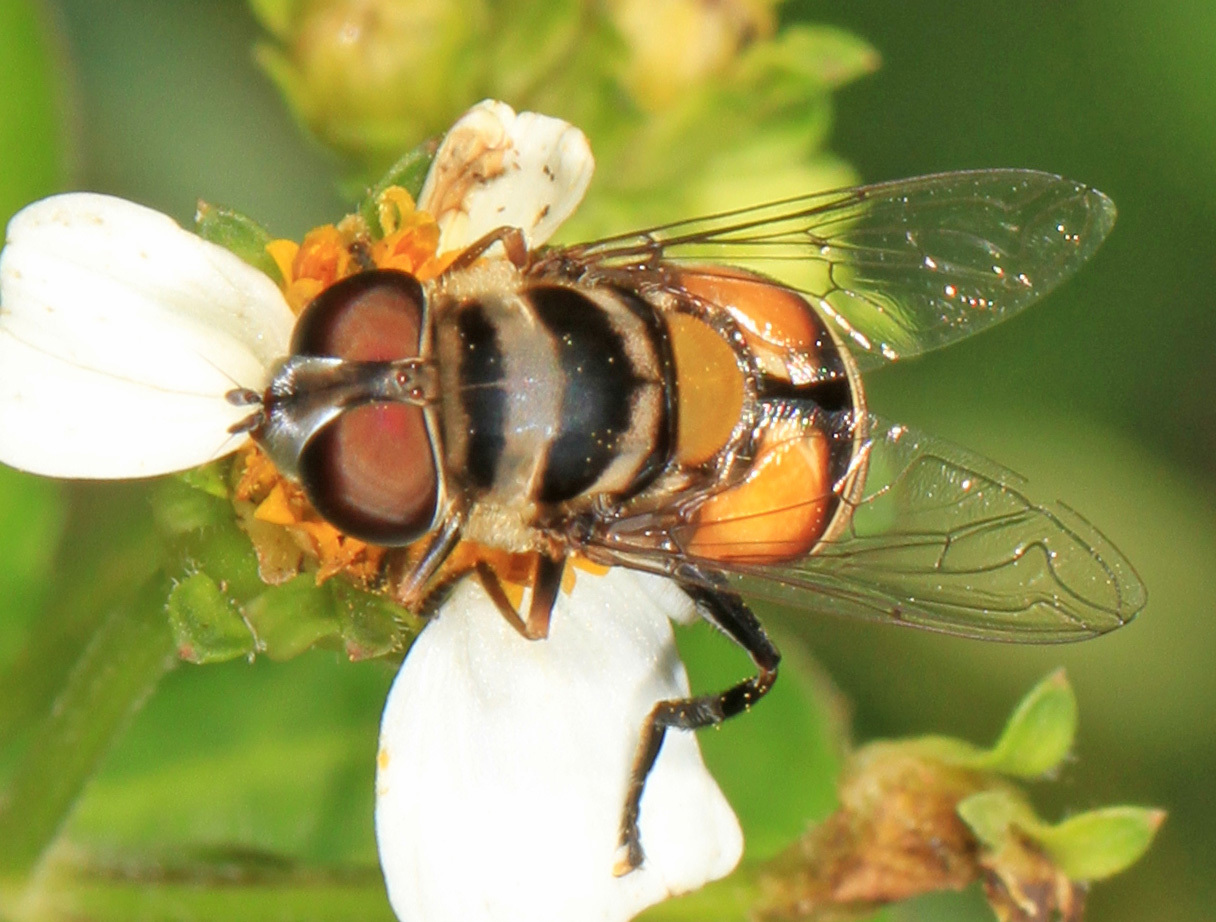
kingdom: Animalia
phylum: Arthropoda
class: Insecta
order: Diptera
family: Syrphidae
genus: Palpada
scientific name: Palpada agrorum
